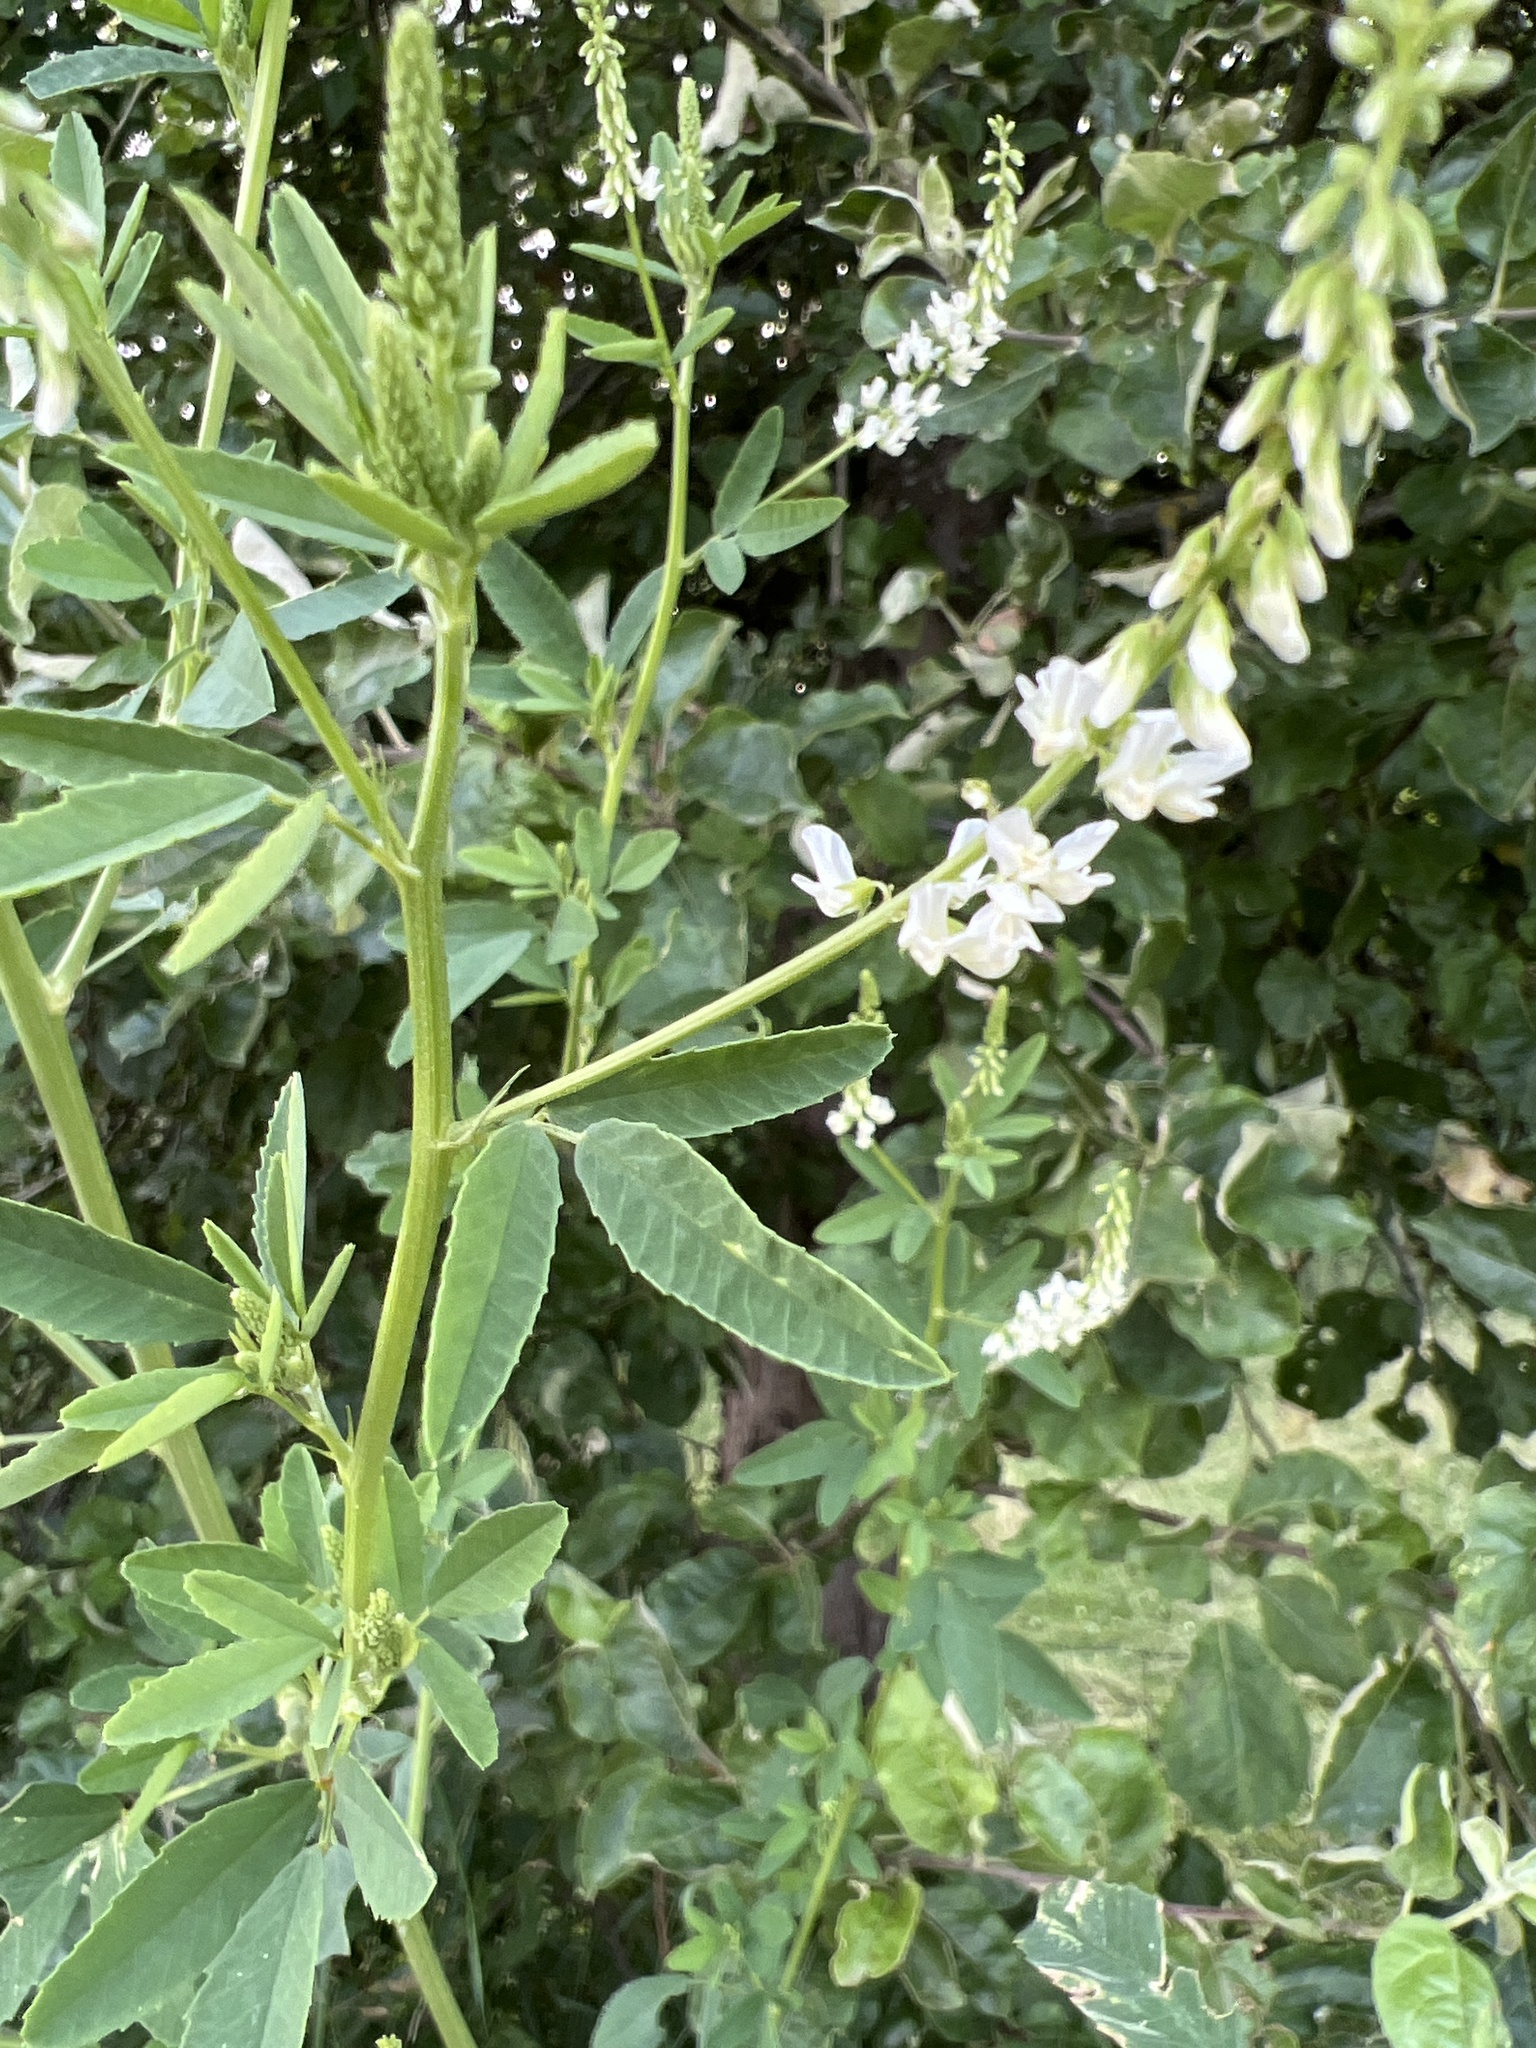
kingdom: Plantae
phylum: Tracheophyta
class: Magnoliopsida
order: Fabales
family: Fabaceae
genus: Melilotus
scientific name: Melilotus albus
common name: White melilot
